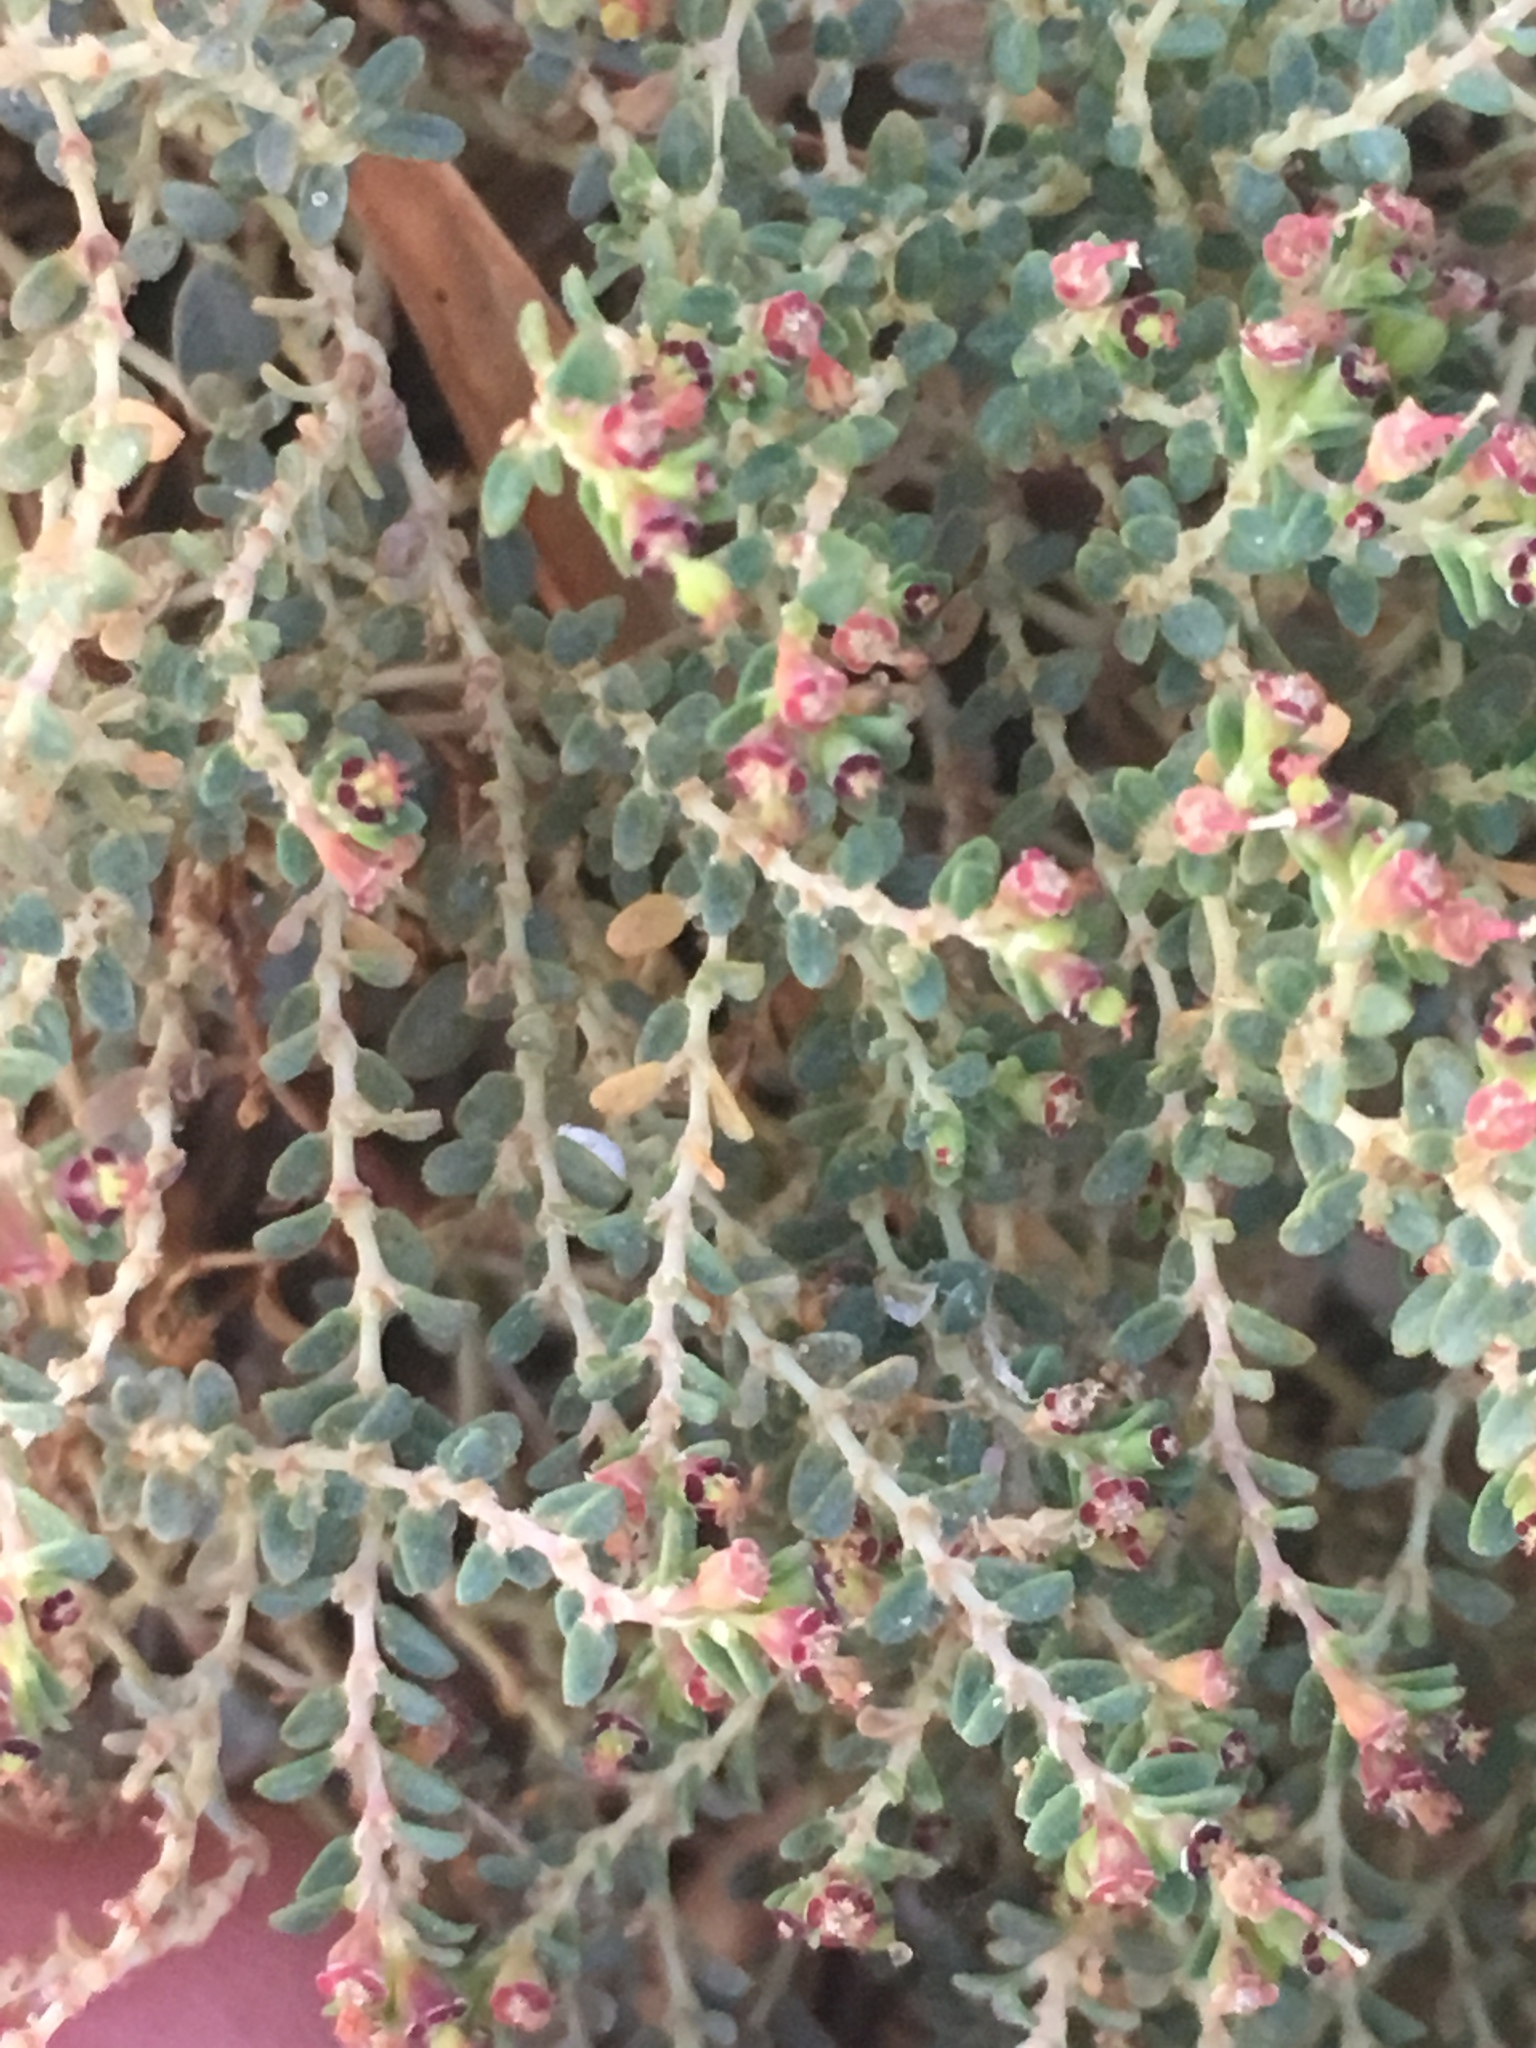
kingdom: Plantae
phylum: Tracheophyta
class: Magnoliopsida
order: Malpighiales
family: Euphorbiaceae
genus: Euphorbia
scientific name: Euphorbia polycarpa
